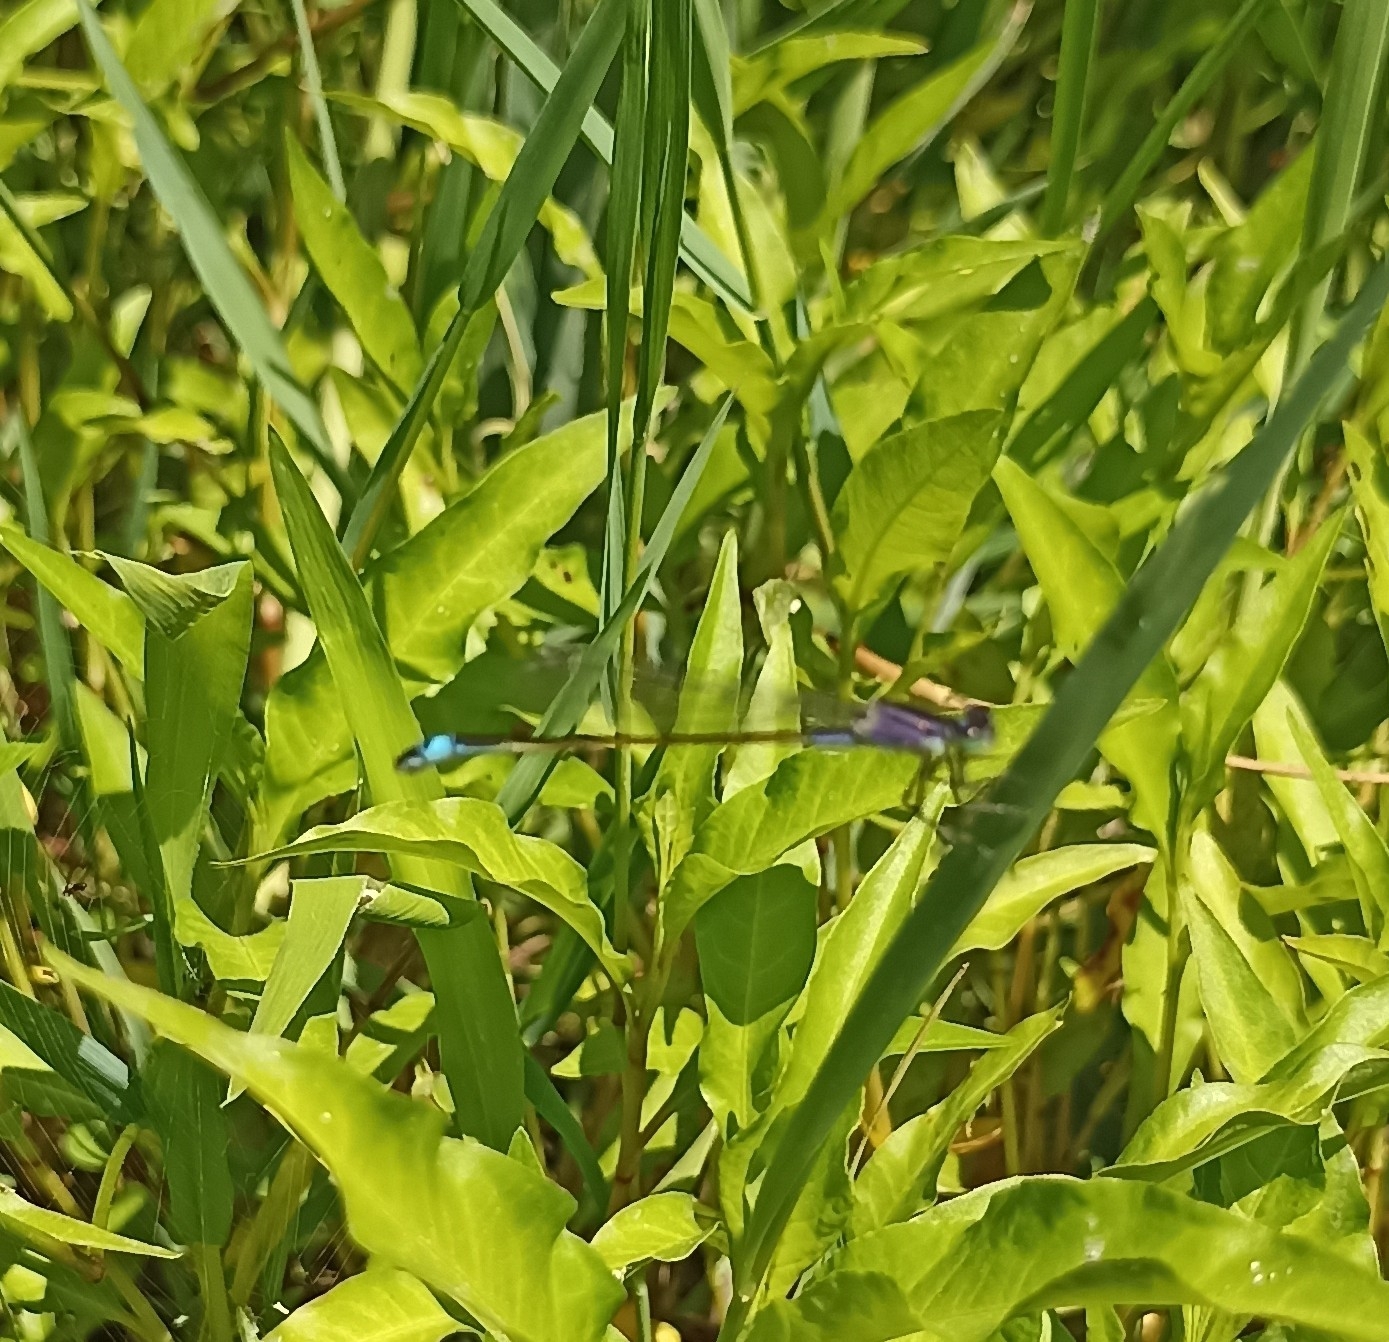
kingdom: Animalia
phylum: Arthropoda
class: Insecta
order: Odonata
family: Coenagrionidae
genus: Ischnura
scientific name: Ischnura elegans
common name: Blue-tailed damselfly
